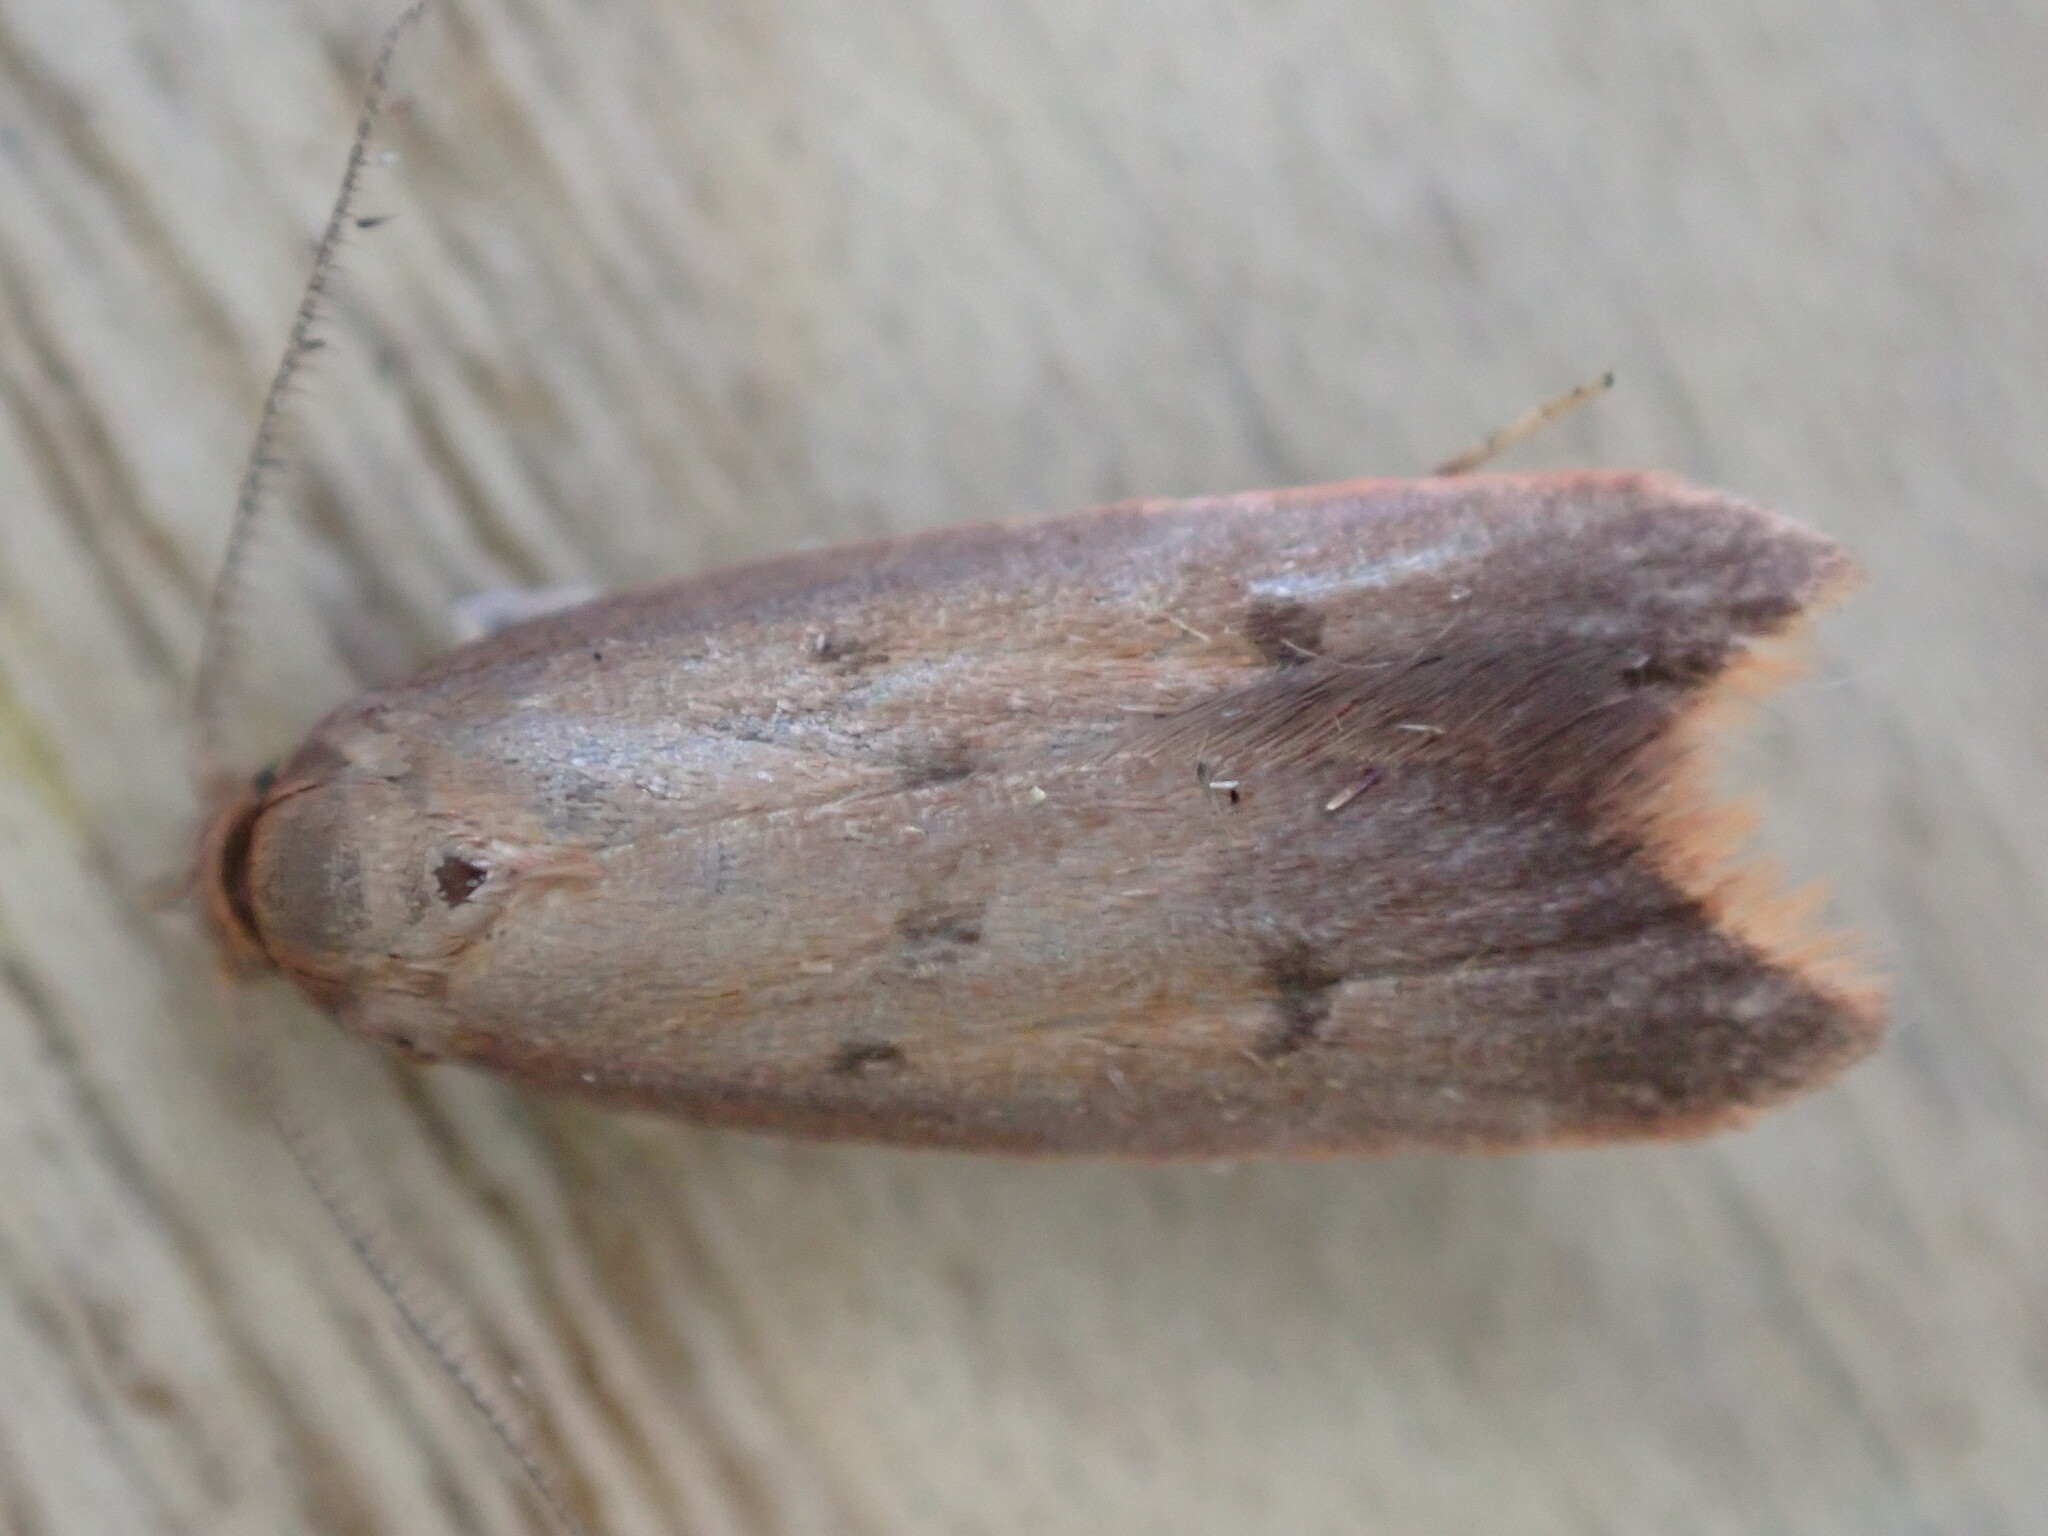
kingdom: Animalia
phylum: Arthropoda
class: Insecta
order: Lepidoptera
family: Oecophoridae
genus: Tachystola
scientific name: Tachystola acroxantha
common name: Ruddy streak
